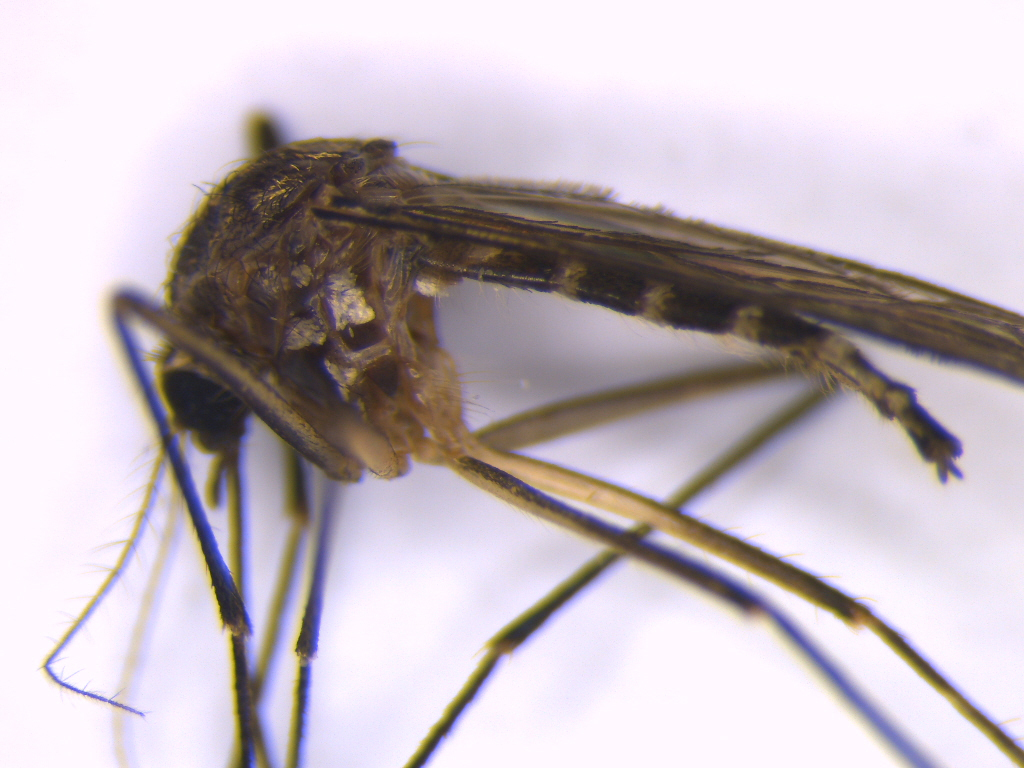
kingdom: Animalia
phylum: Arthropoda
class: Insecta
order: Diptera
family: Culicidae
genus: Aedes
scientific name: Aedes antipodeus
